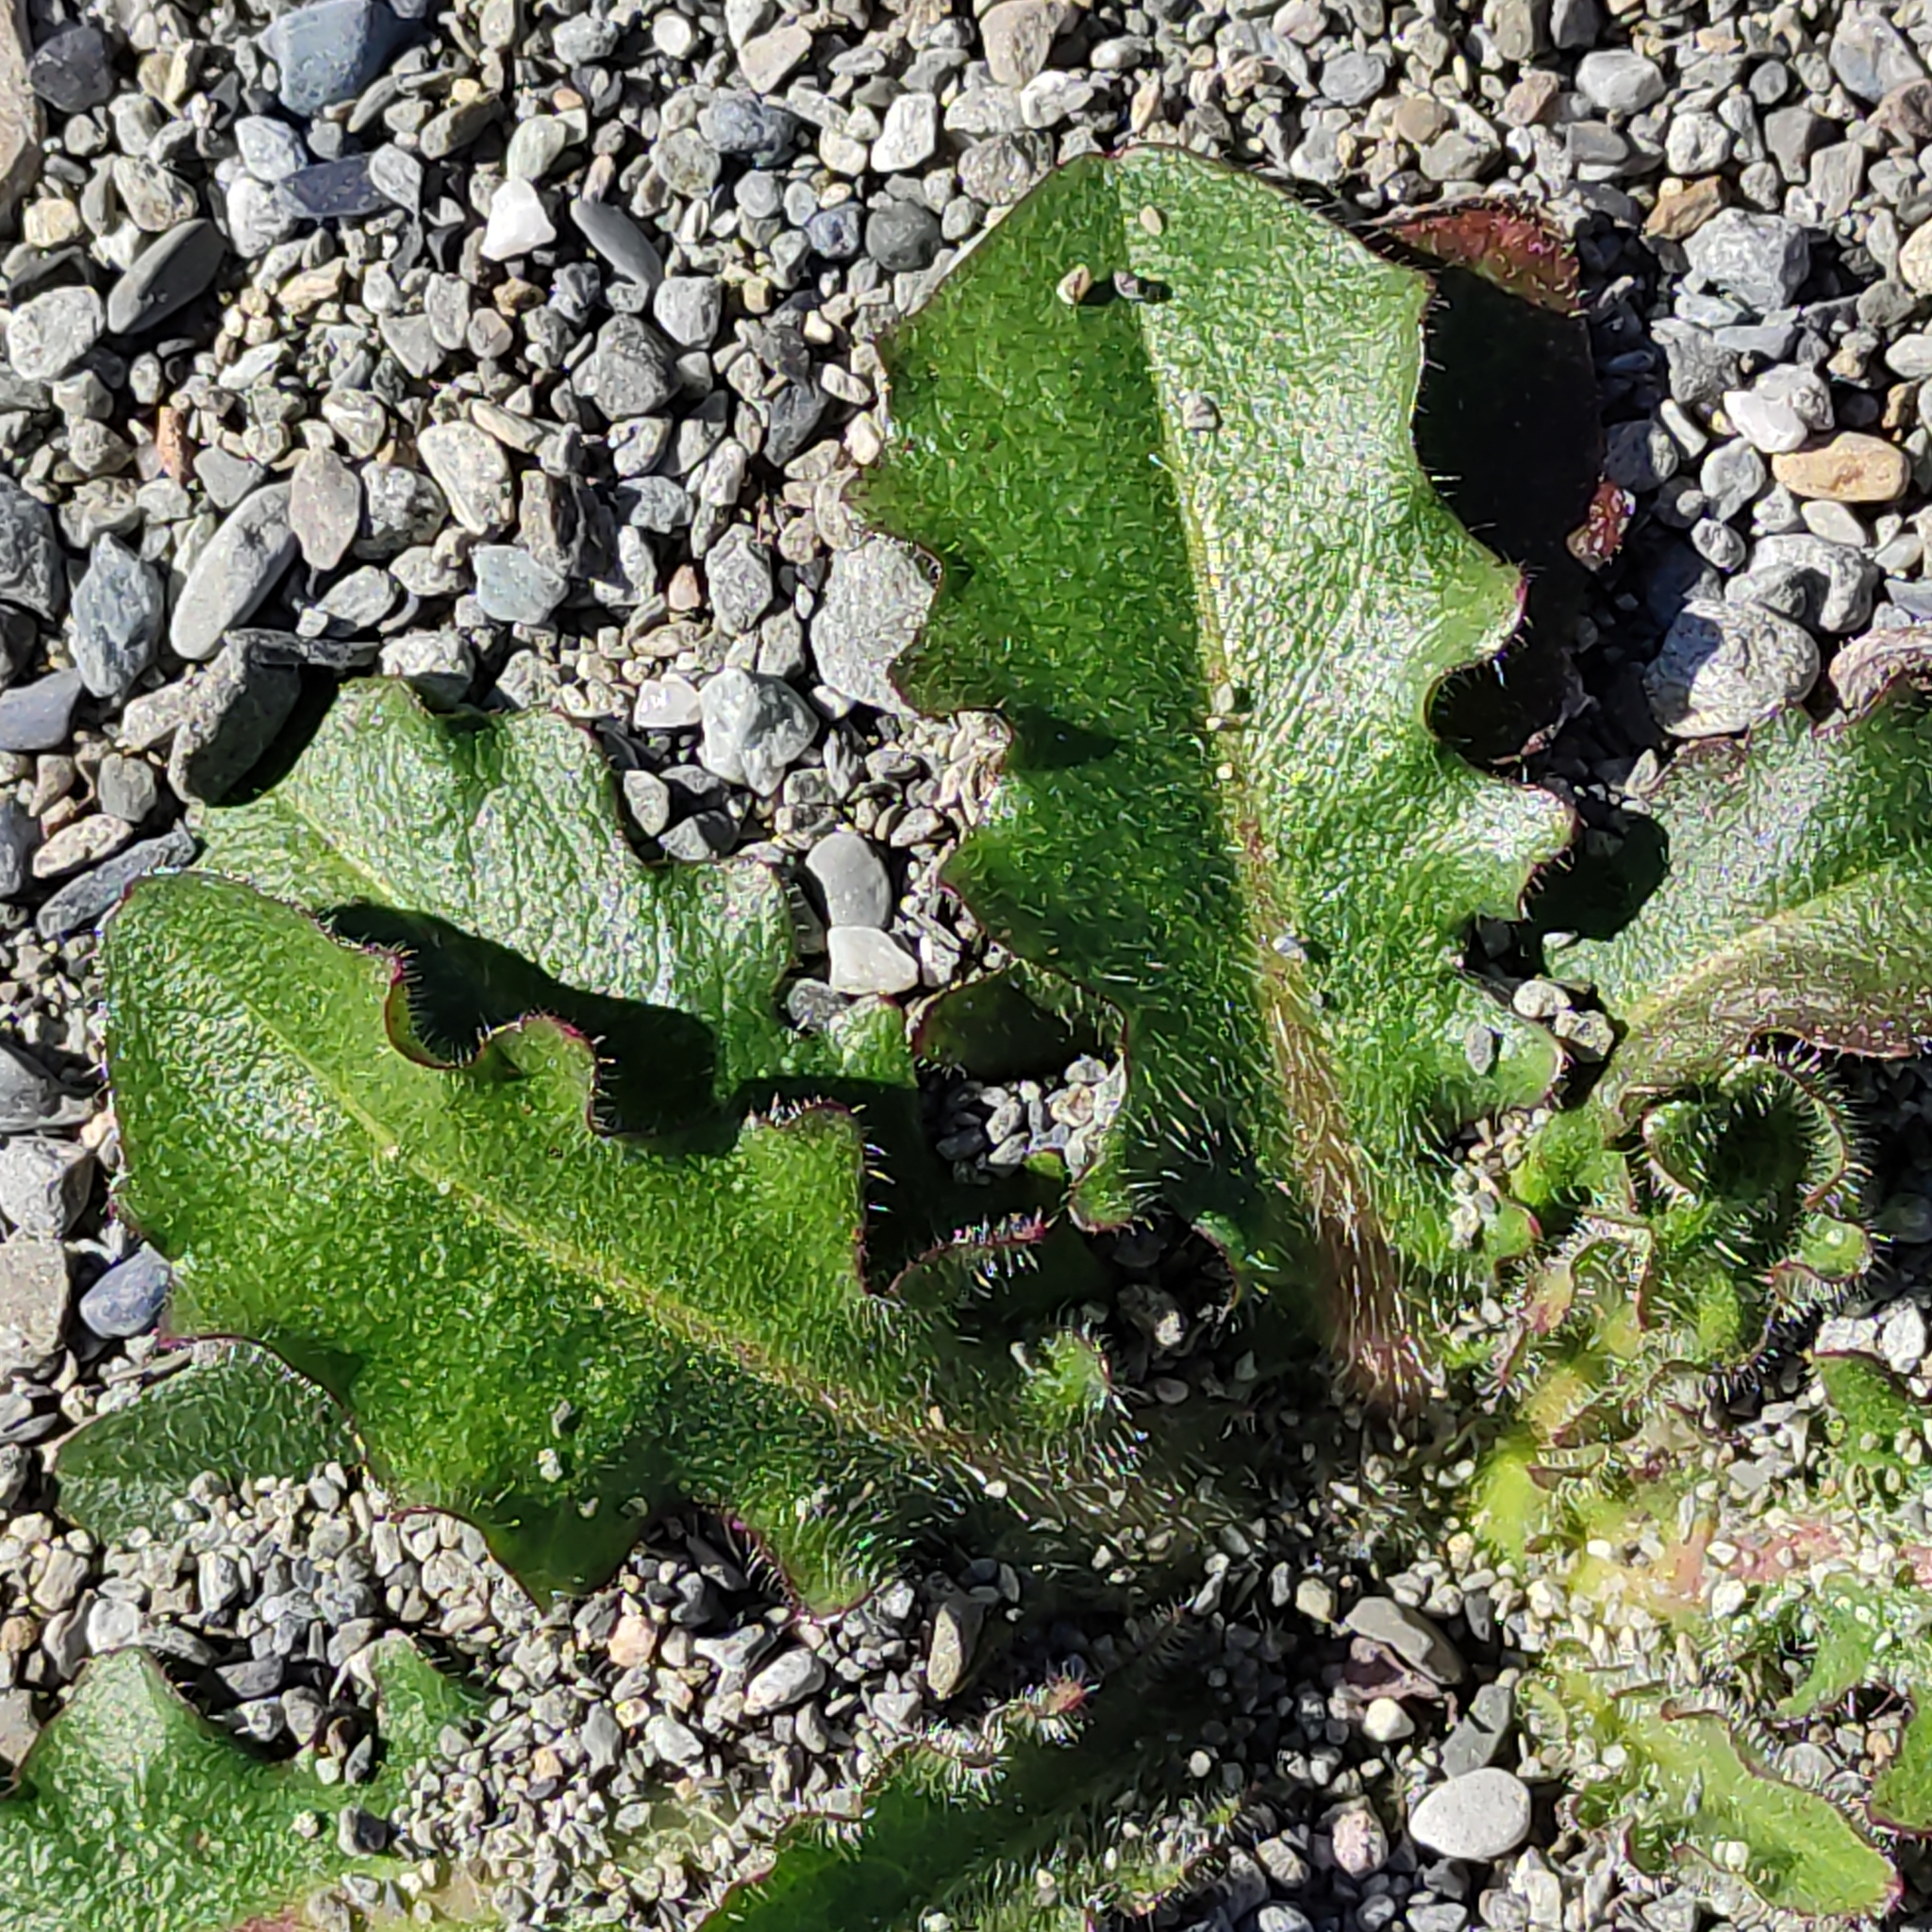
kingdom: Plantae
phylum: Tracheophyta
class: Magnoliopsida
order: Asterales
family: Asteraceae
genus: Hypochaeris
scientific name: Hypochaeris radicata
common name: Flatweed
